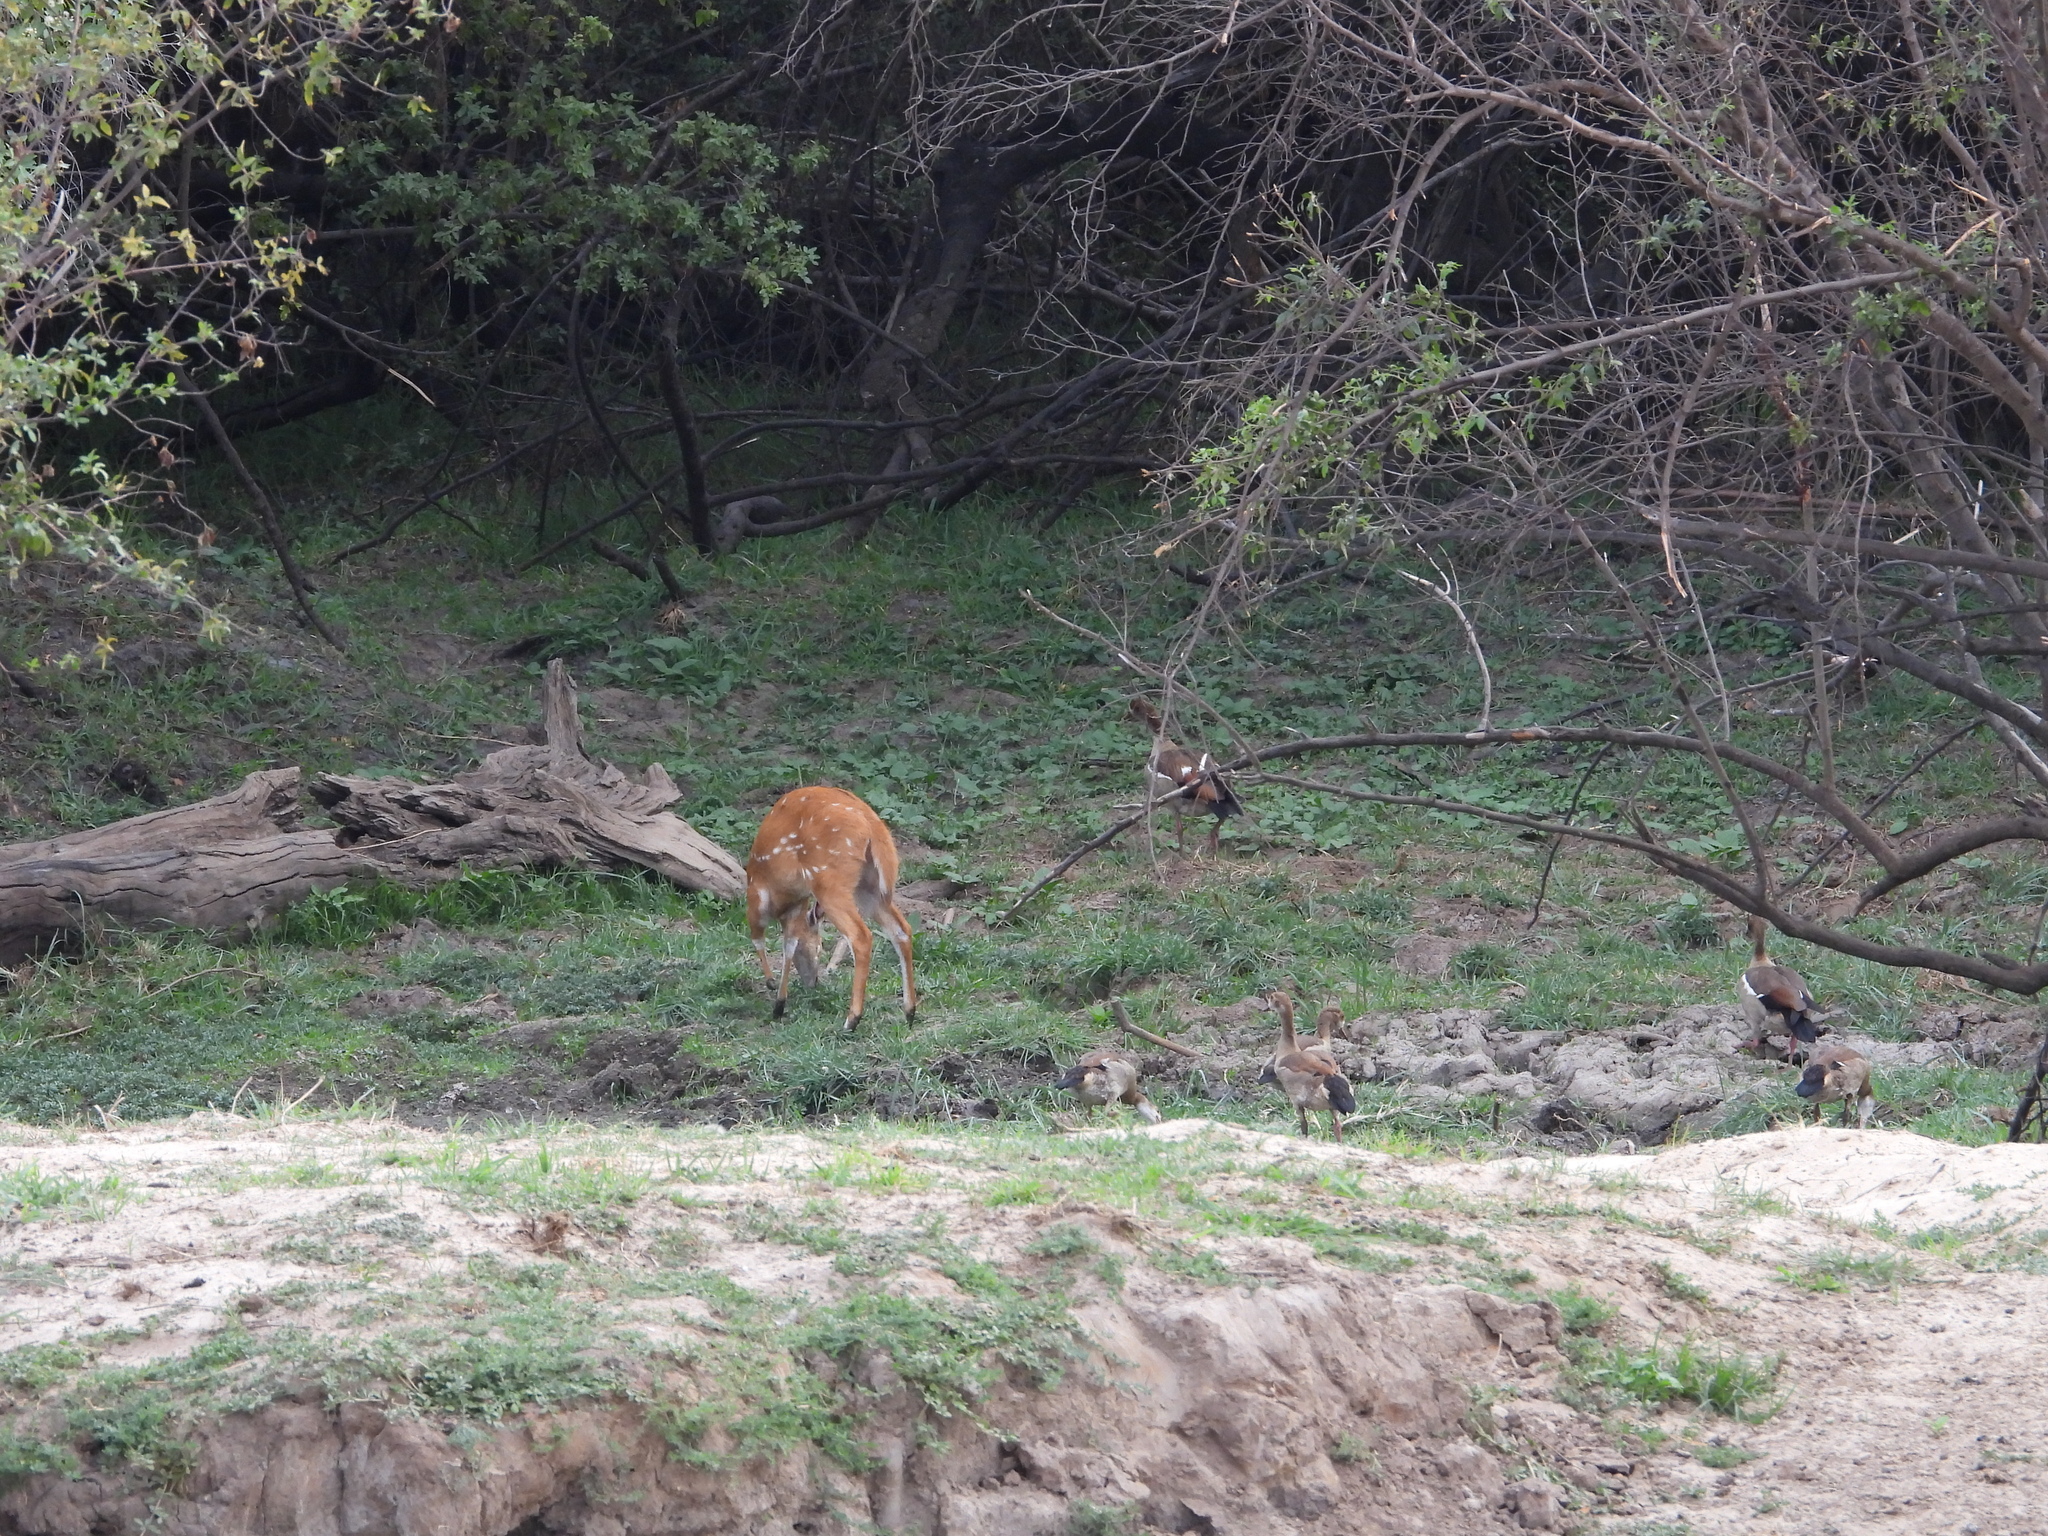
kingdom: Animalia
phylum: Chordata
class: Mammalia
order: Artiodactyla
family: Bovidae
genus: Tragelaphus
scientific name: Tragelaphus scriptus
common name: Bushbuck
